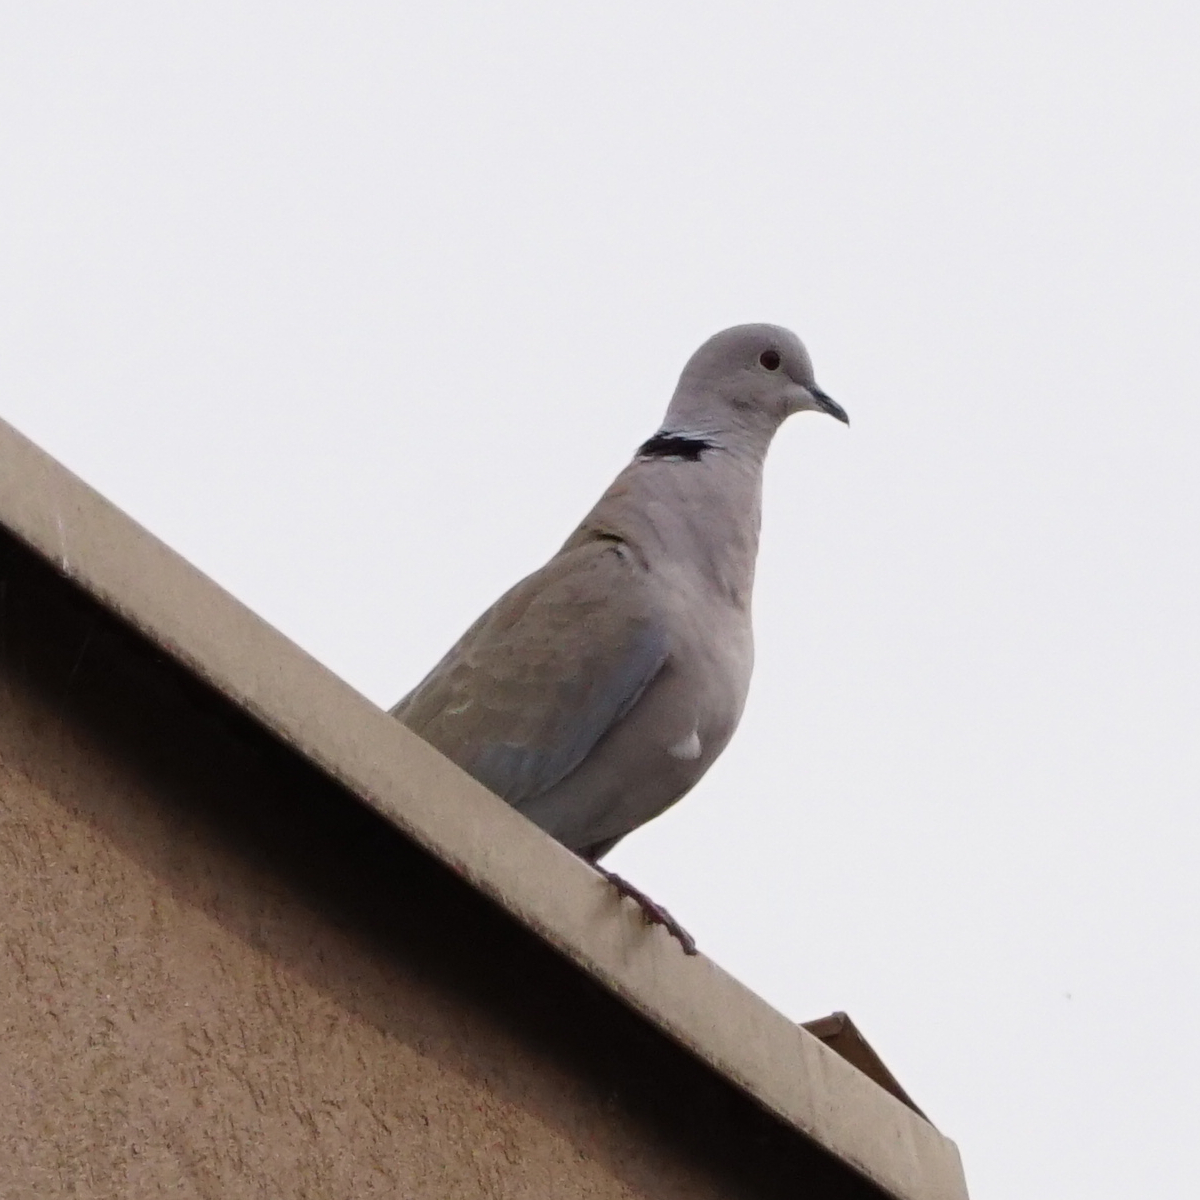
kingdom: Animalia
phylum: Chordata
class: Aves
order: Columbiformes
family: Columbidae
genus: Streptopelia
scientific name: Streptopelia decaocto
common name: Eurasian collared dove
